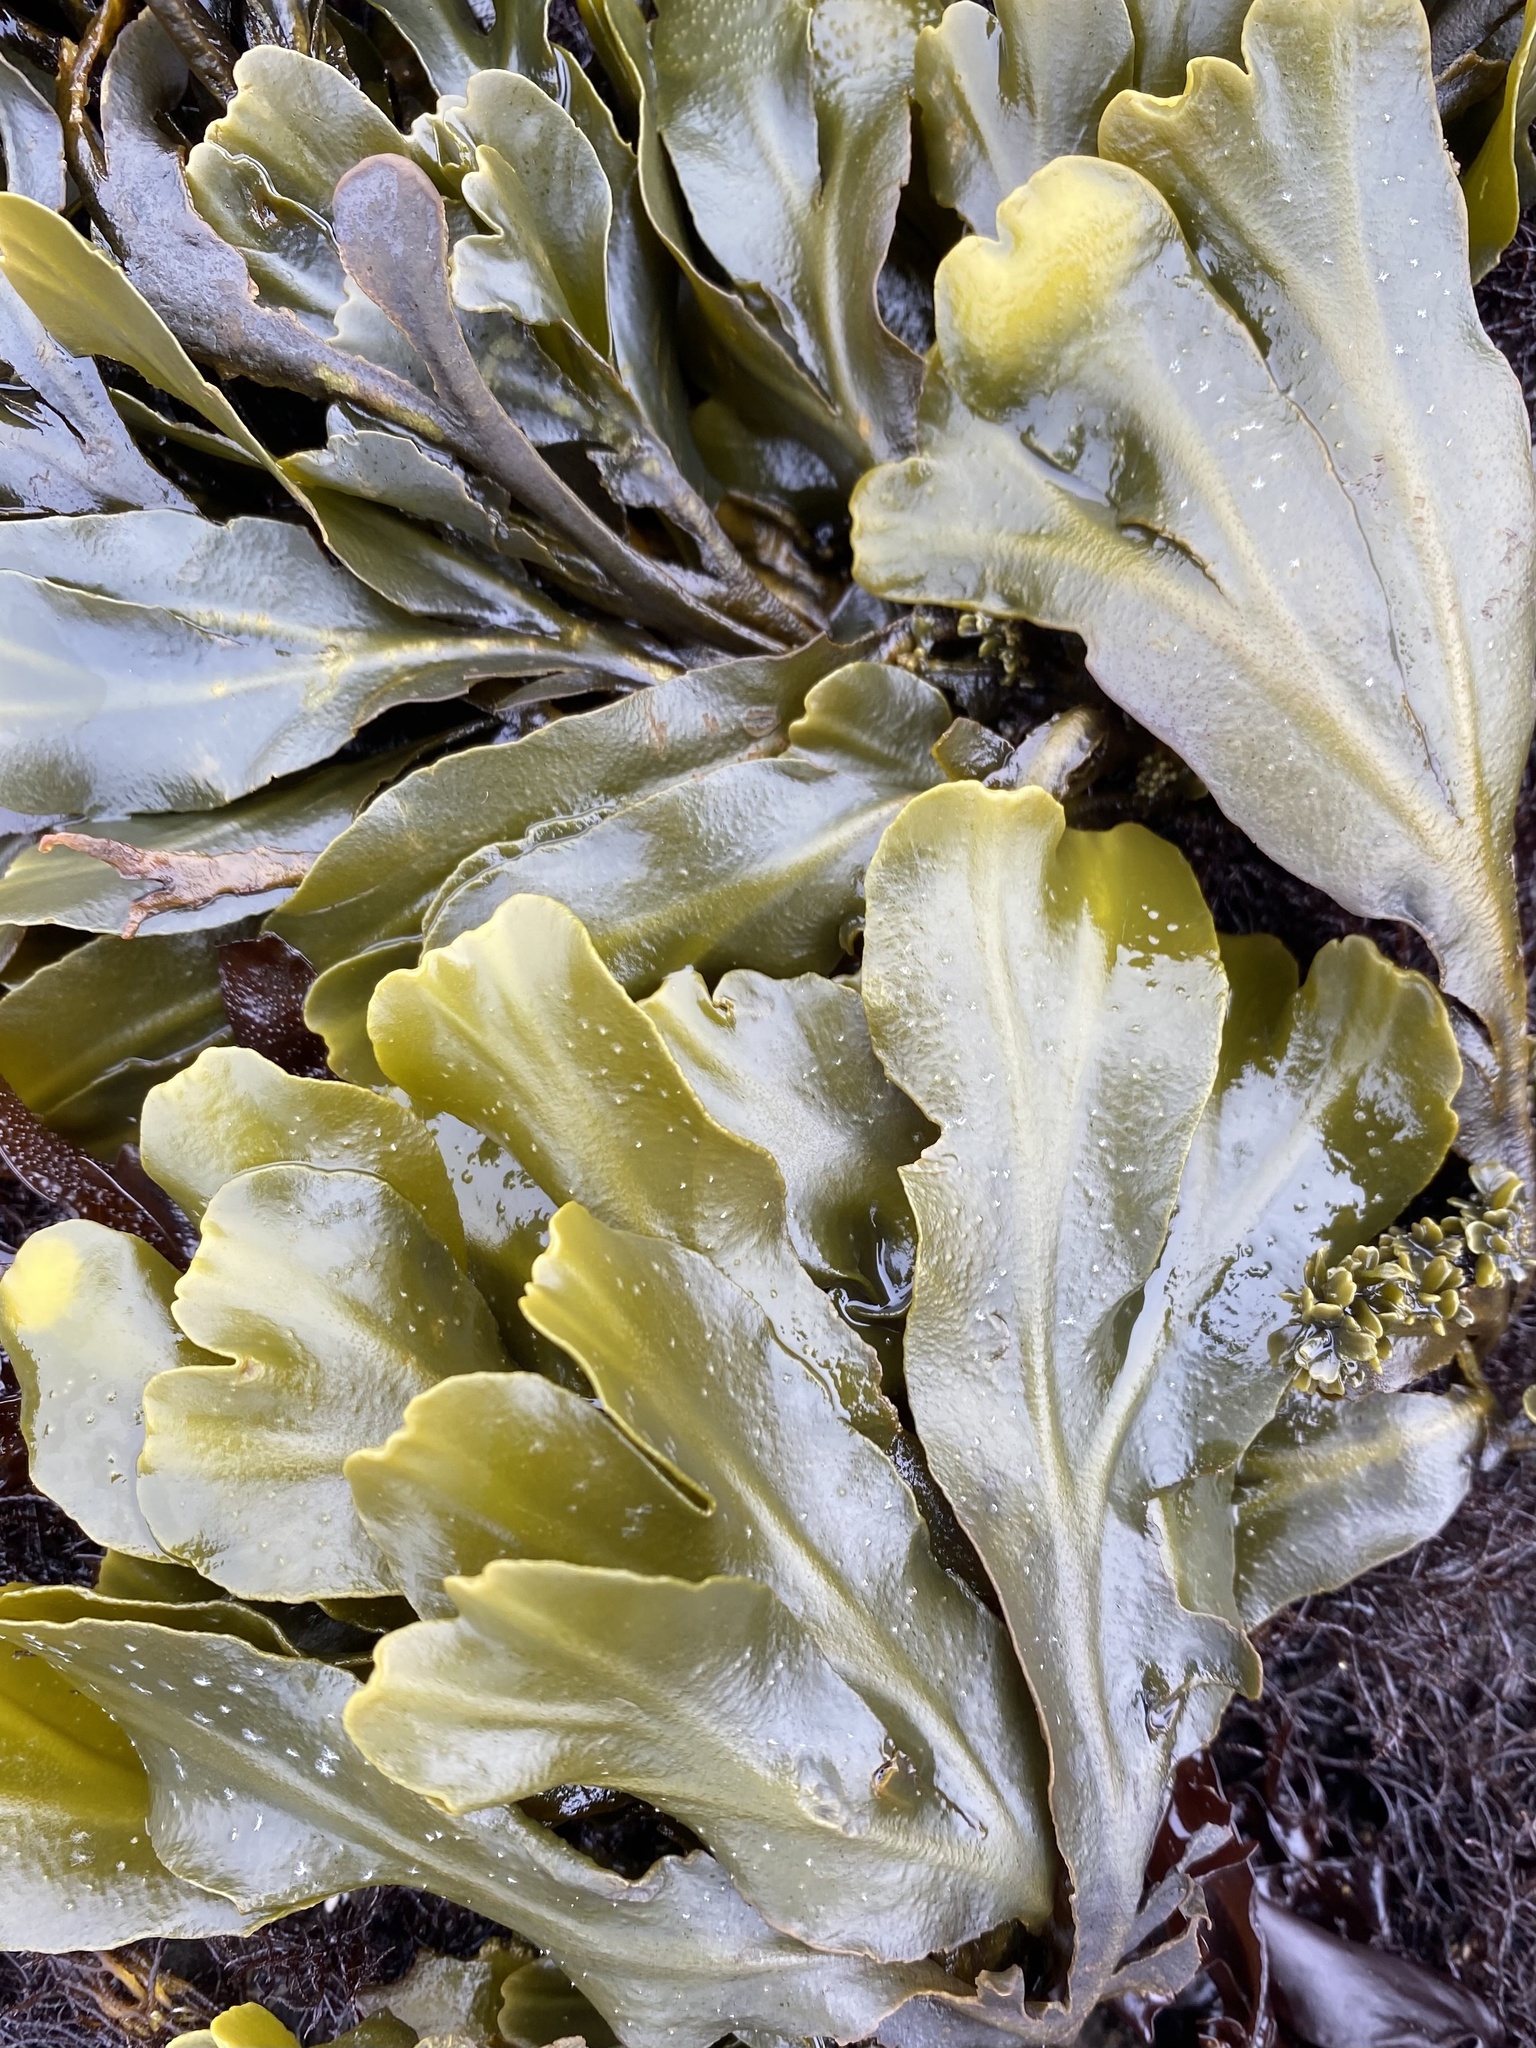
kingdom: Chromista
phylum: Ochrophyta
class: Phaeophyceae
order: Fucales
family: Fucaceae
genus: Fucus
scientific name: Fucus distichus
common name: Rockweed
